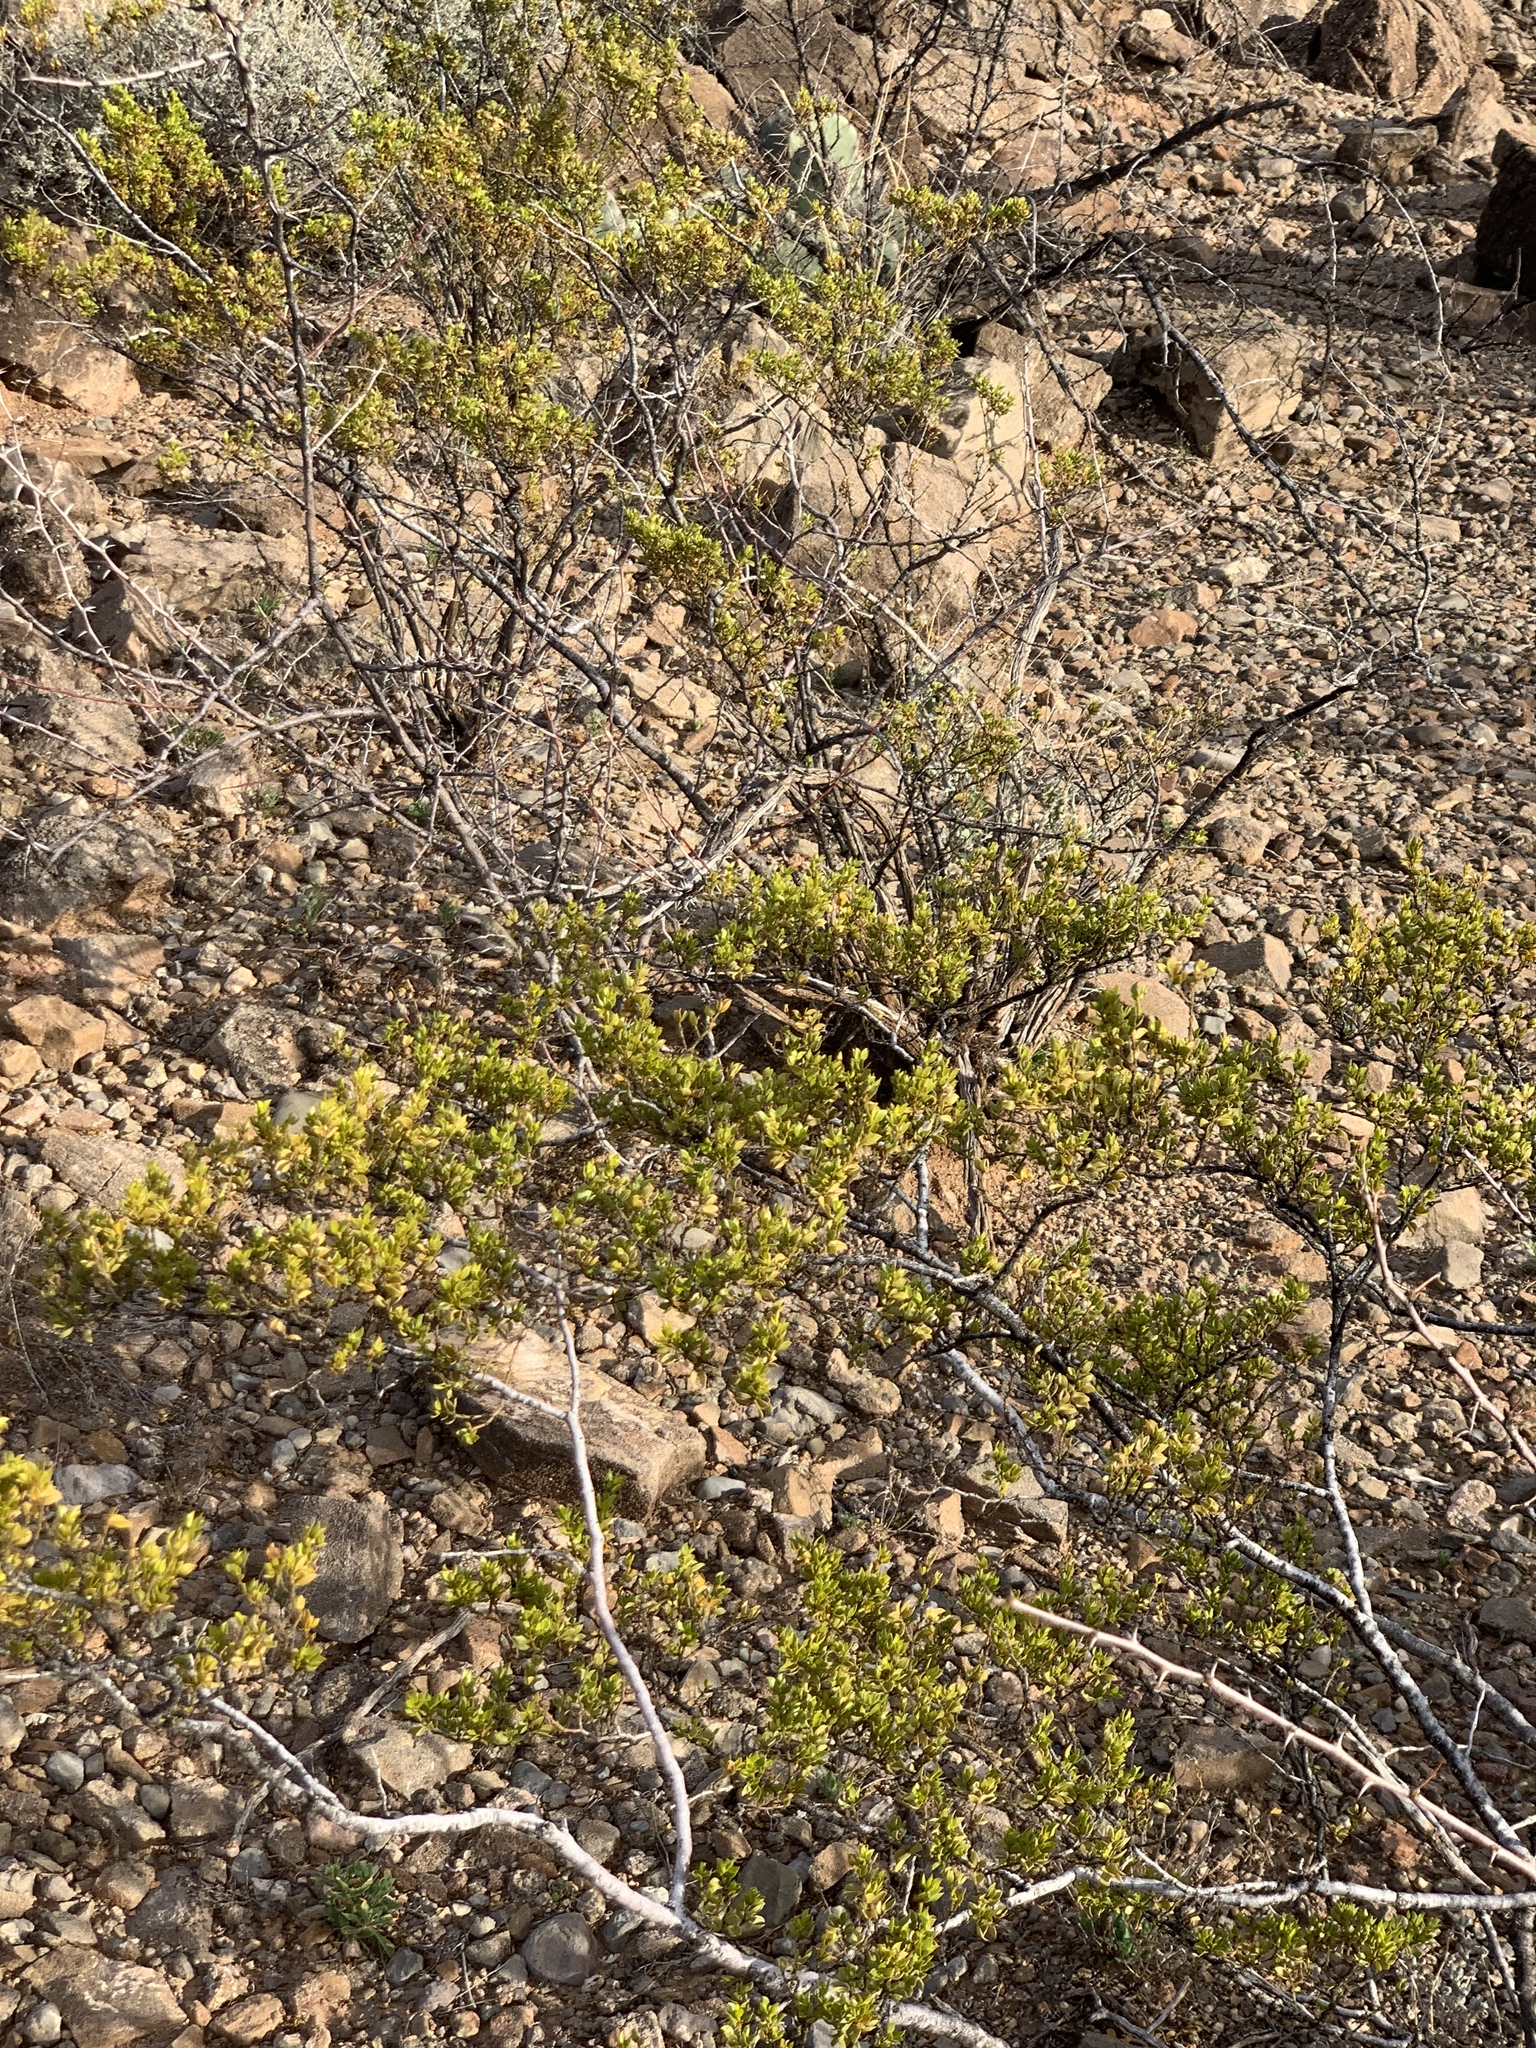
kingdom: Plantae
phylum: Tracheophyta
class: Magnoliopsida
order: Zygophyllales
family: Zygophyllaceae
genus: Larrea
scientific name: Larrea tridentata
